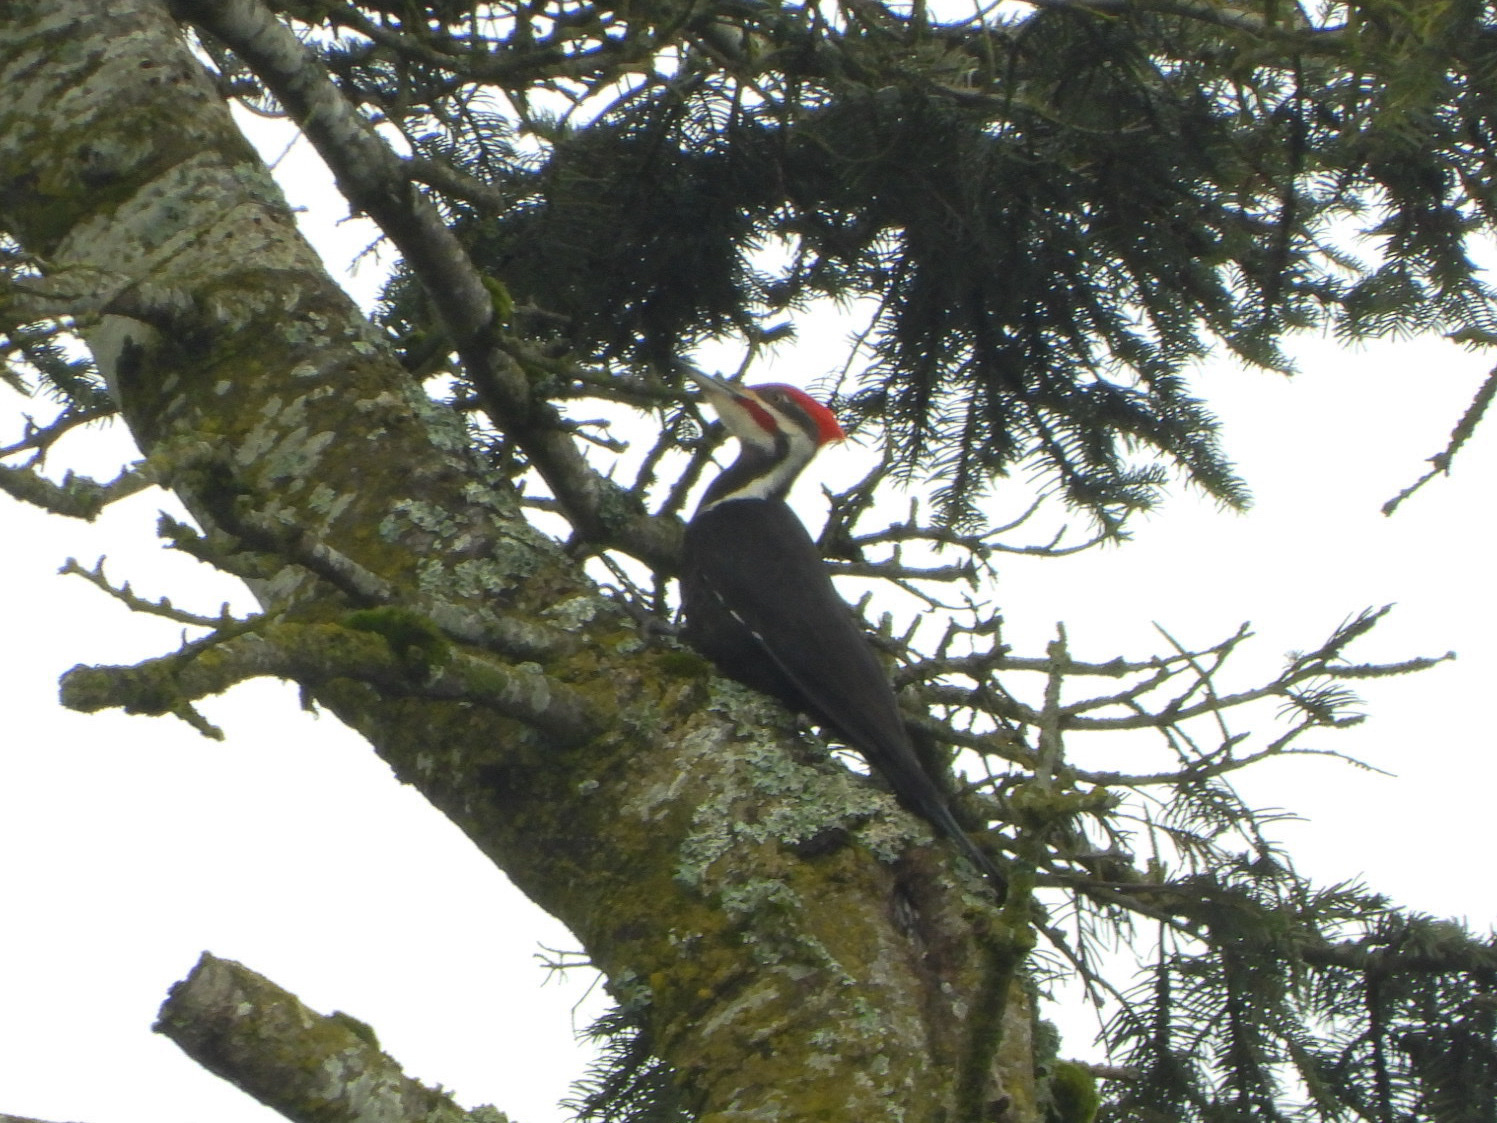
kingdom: Animalia
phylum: Chordata
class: Aves
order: Piciformes
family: Picidae
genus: Dryocopus
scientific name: Dryocopus pileatus
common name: Pileated woodpecker
